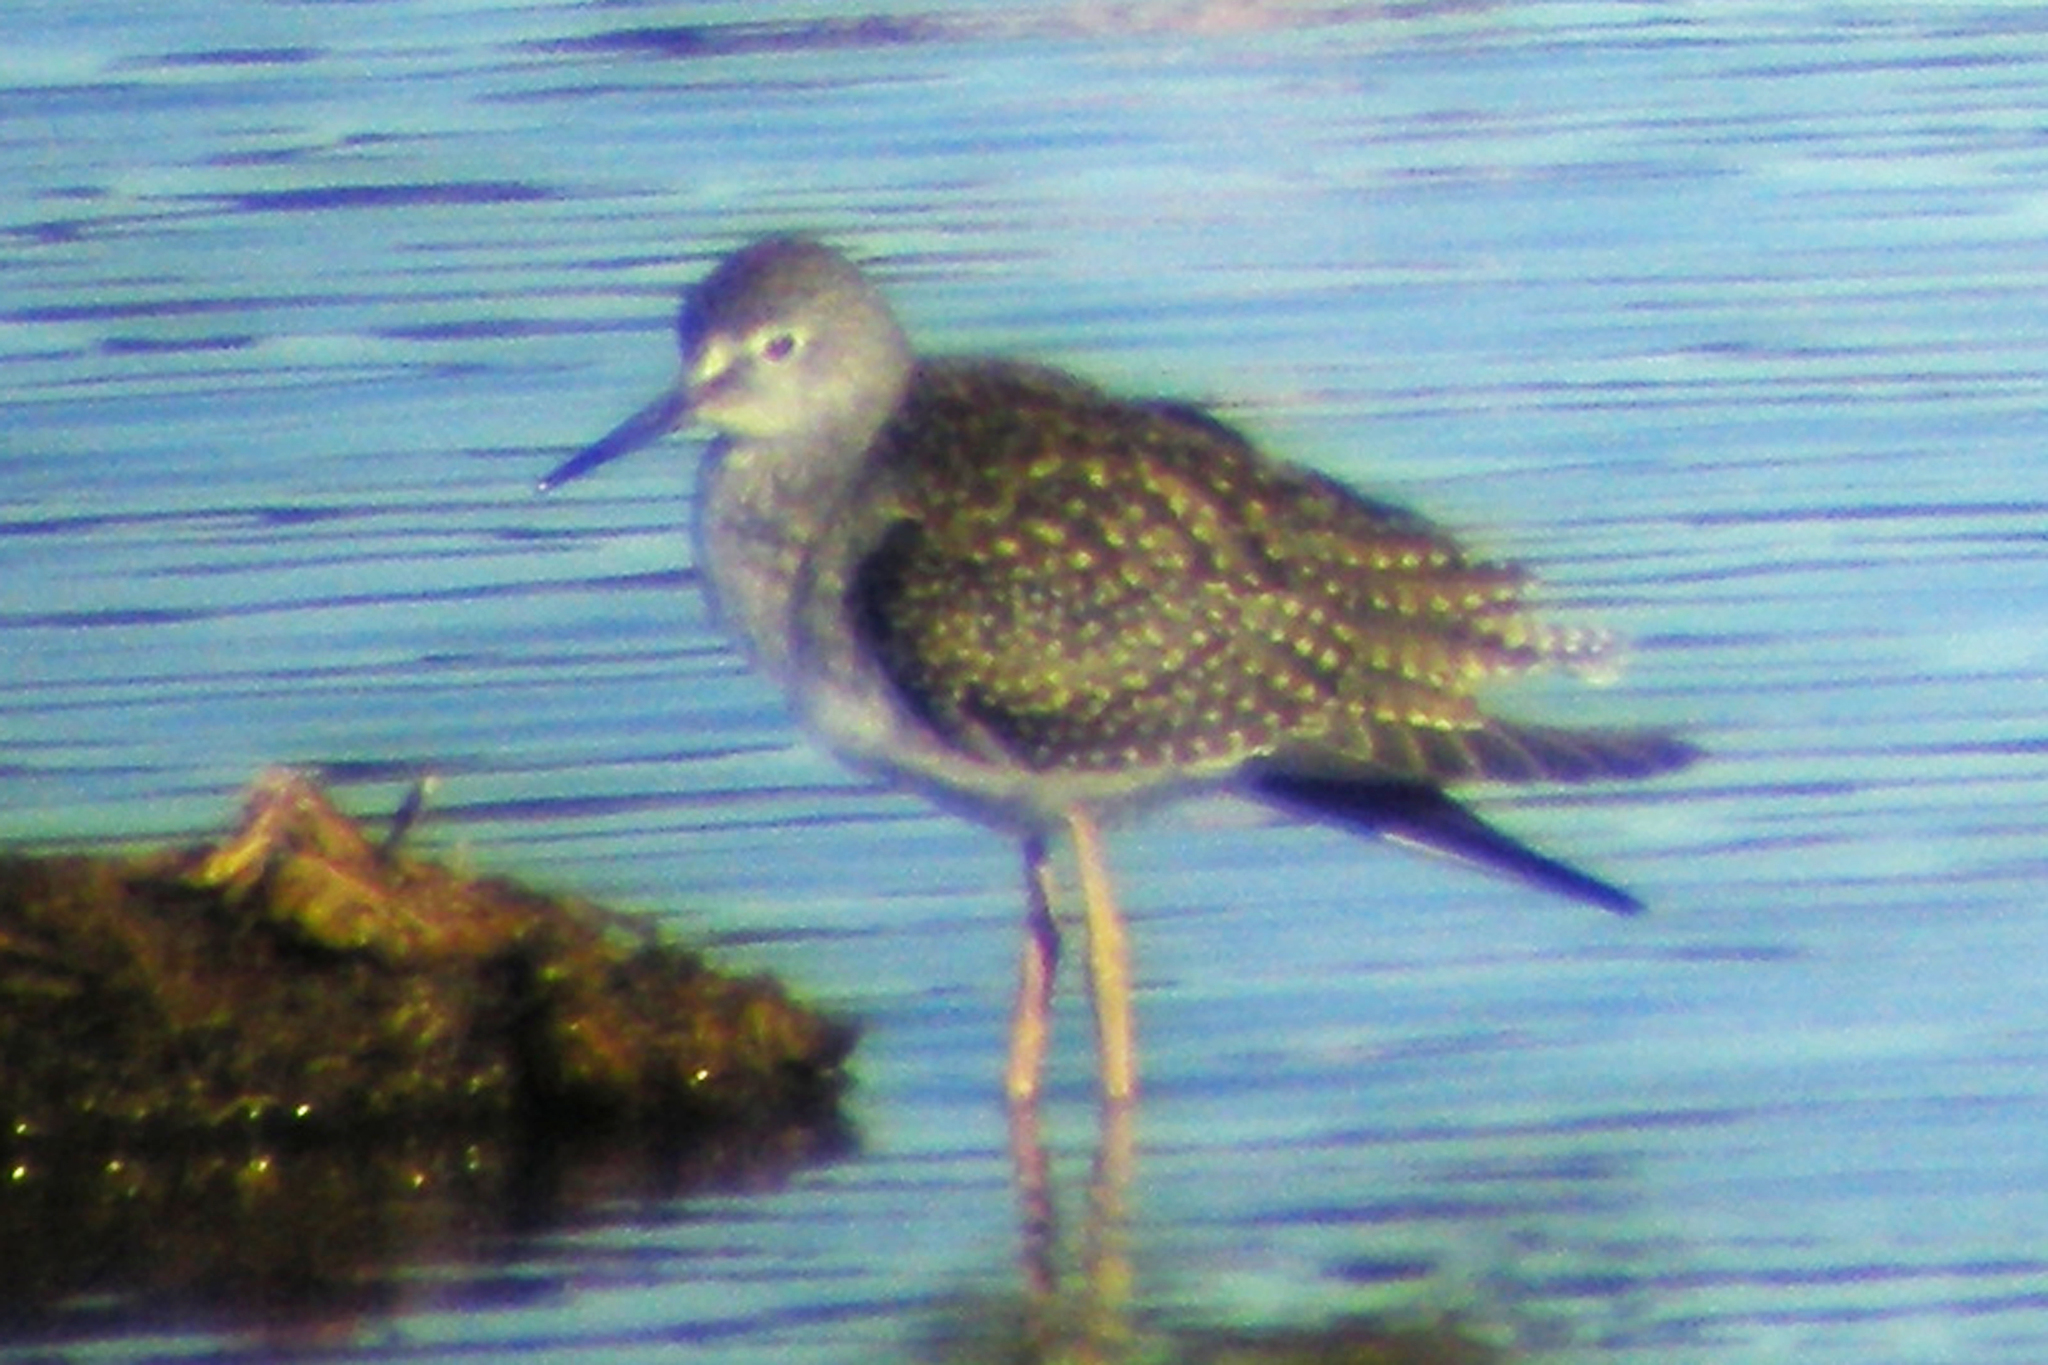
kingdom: Animalia
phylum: Chordata
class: Aves
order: Charadriiformes
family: Scolopacidae
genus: Tringa
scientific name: Tringa flavipes
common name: Lesser yellowlegs
